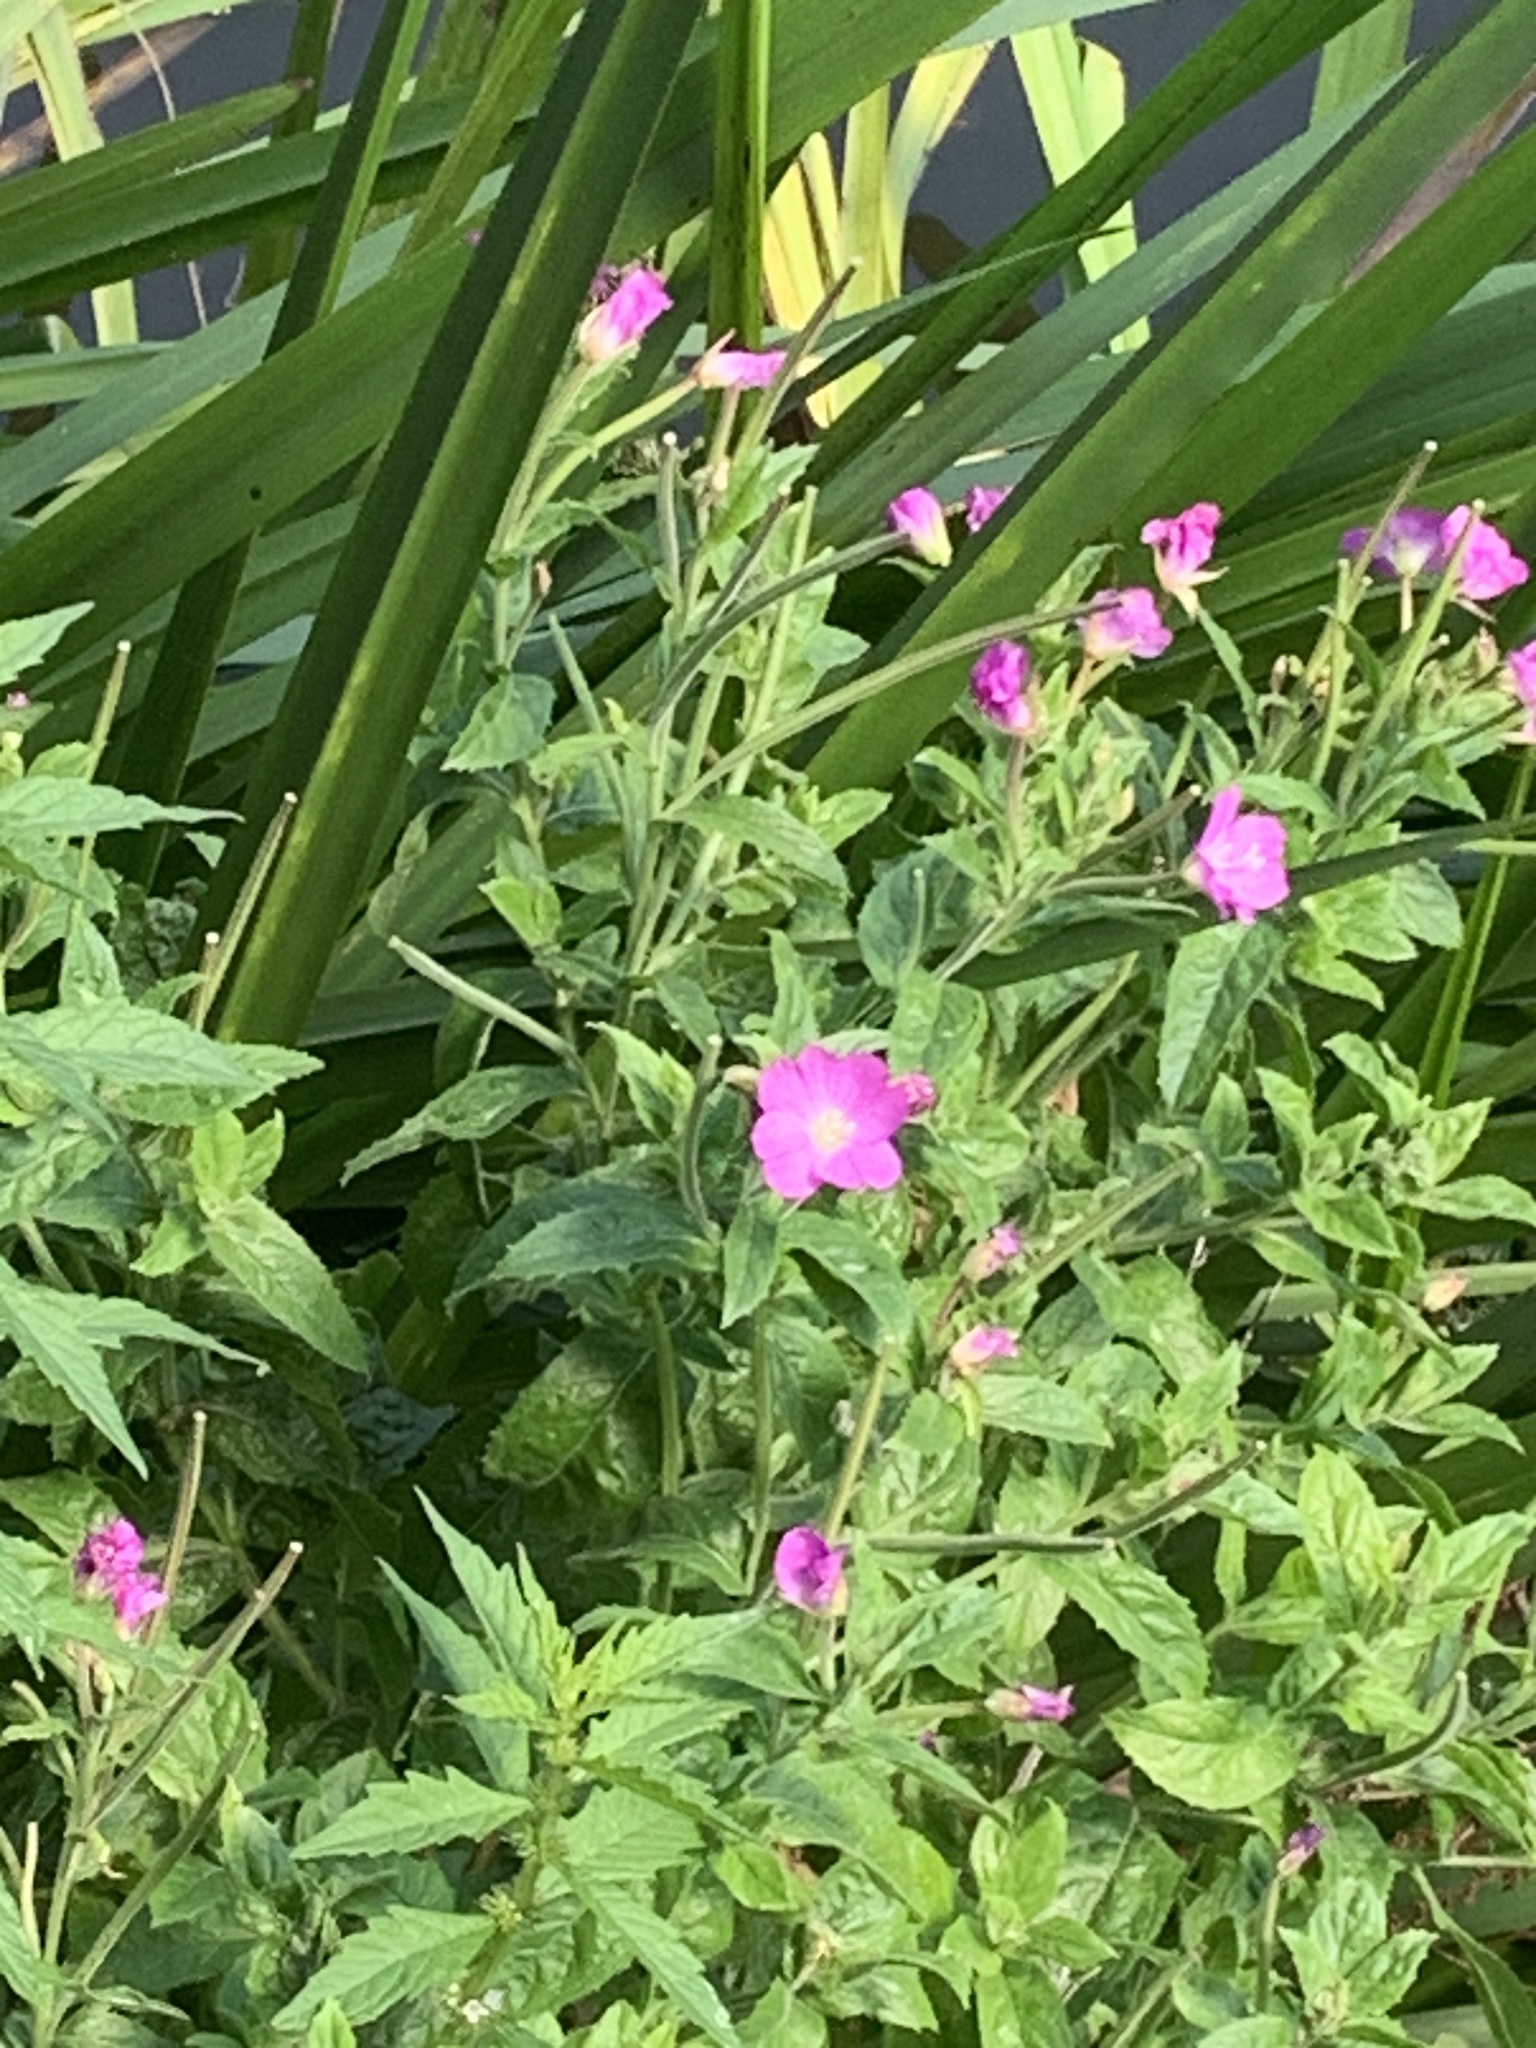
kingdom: Plantae
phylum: Tracheophyta
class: Magnoliopsida
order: Myrtales
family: Onagraceae
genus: Epilobium
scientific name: Epilobium hirsutum
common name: Great willowherb
